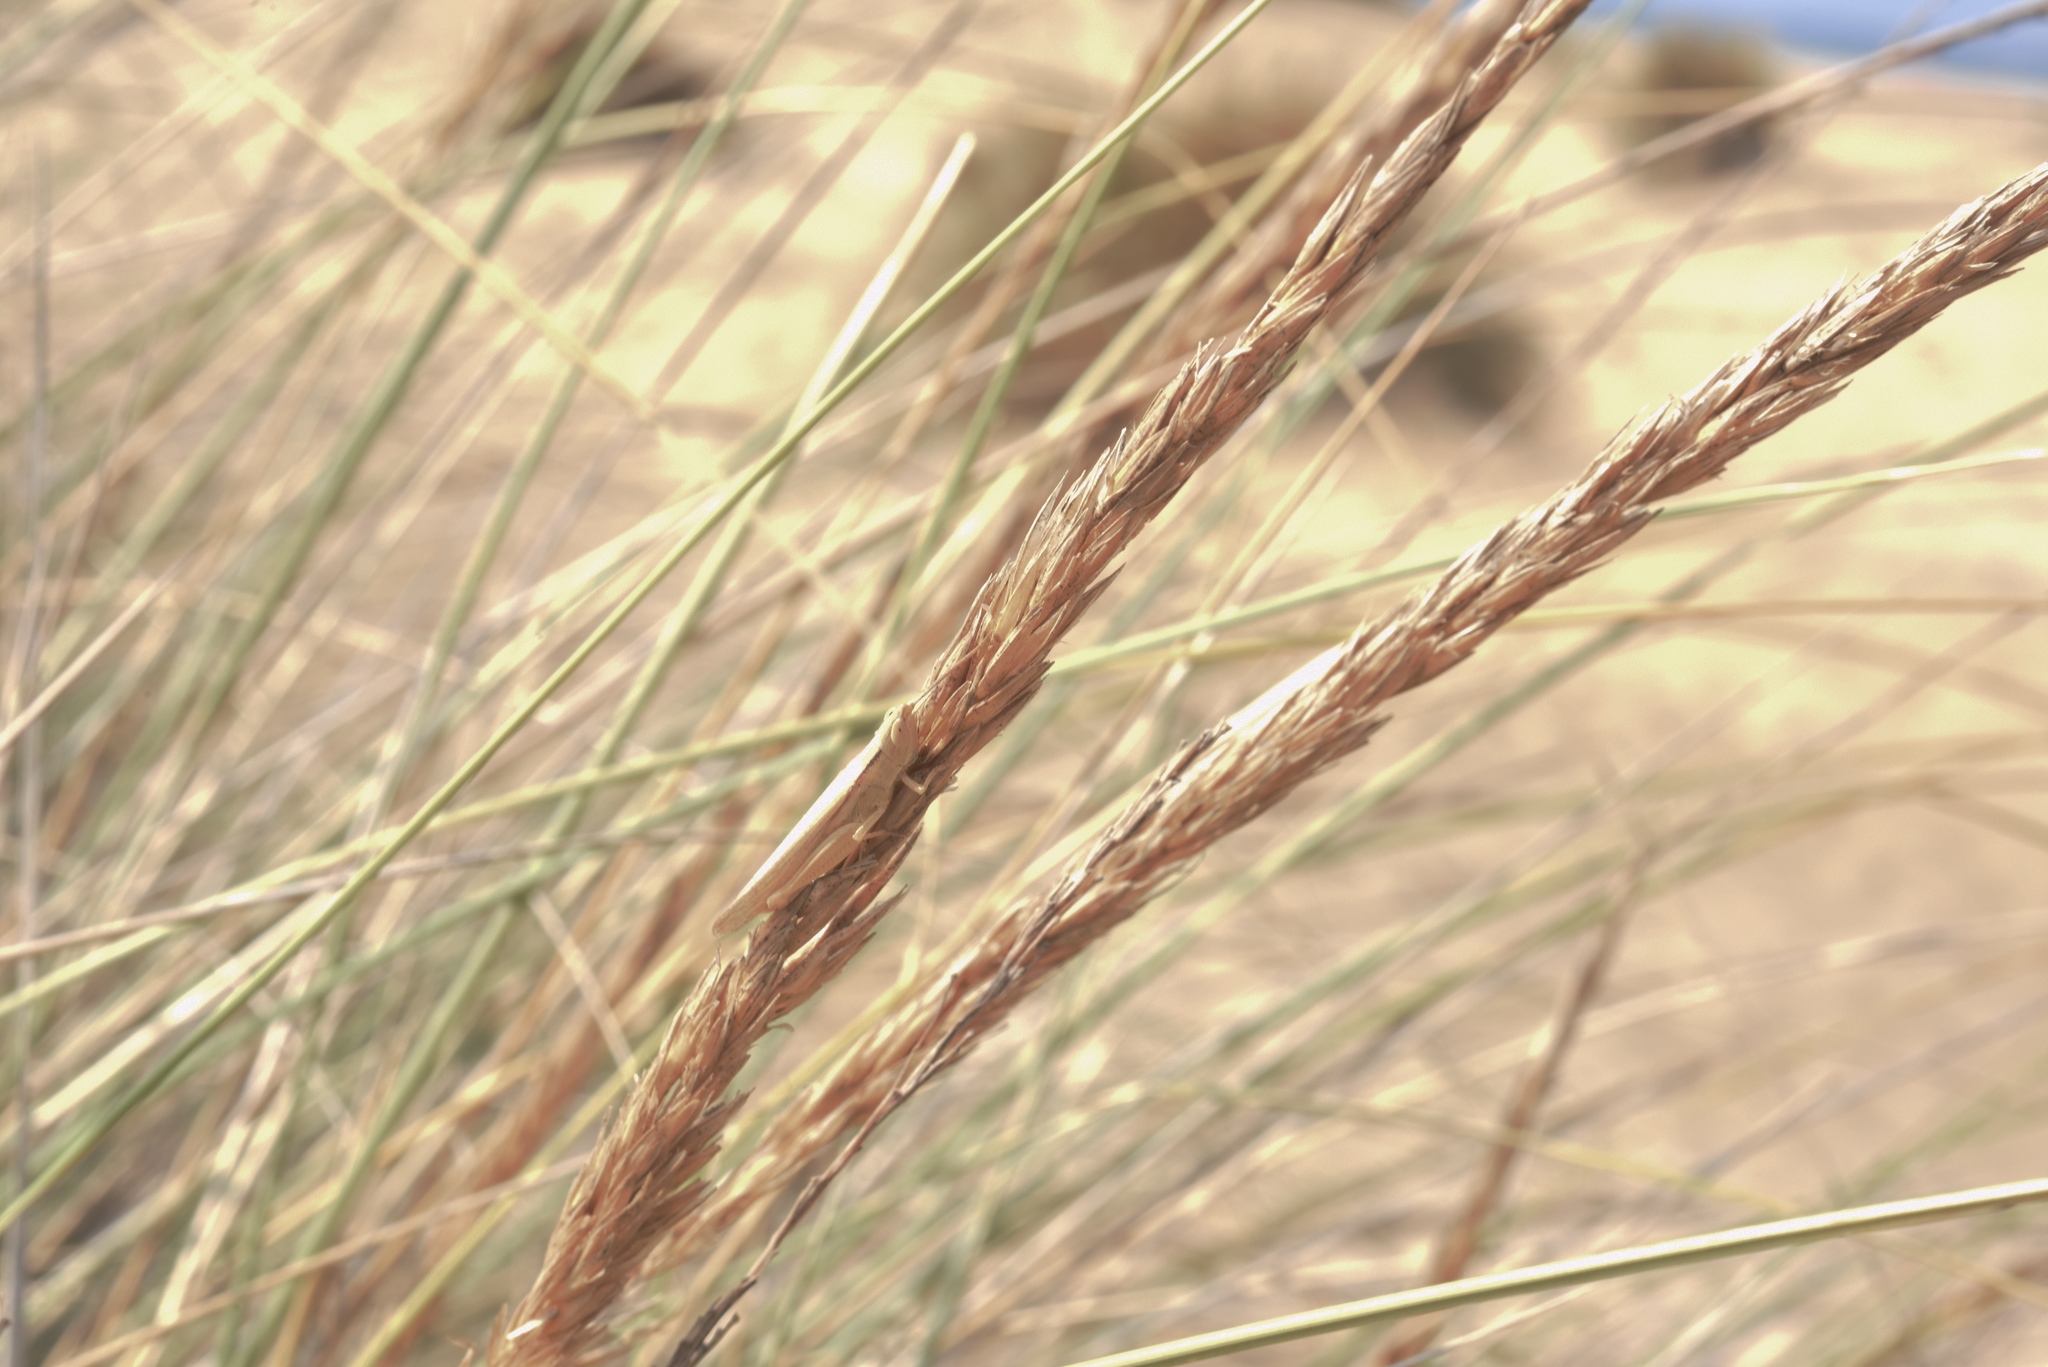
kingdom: Animalia
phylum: Arthropoda
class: Insecta
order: Orthoptera
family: Acrididae
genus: Ochrilidia
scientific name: Ochrilidia nuragica
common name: Sardinian cylindric grasshopper
